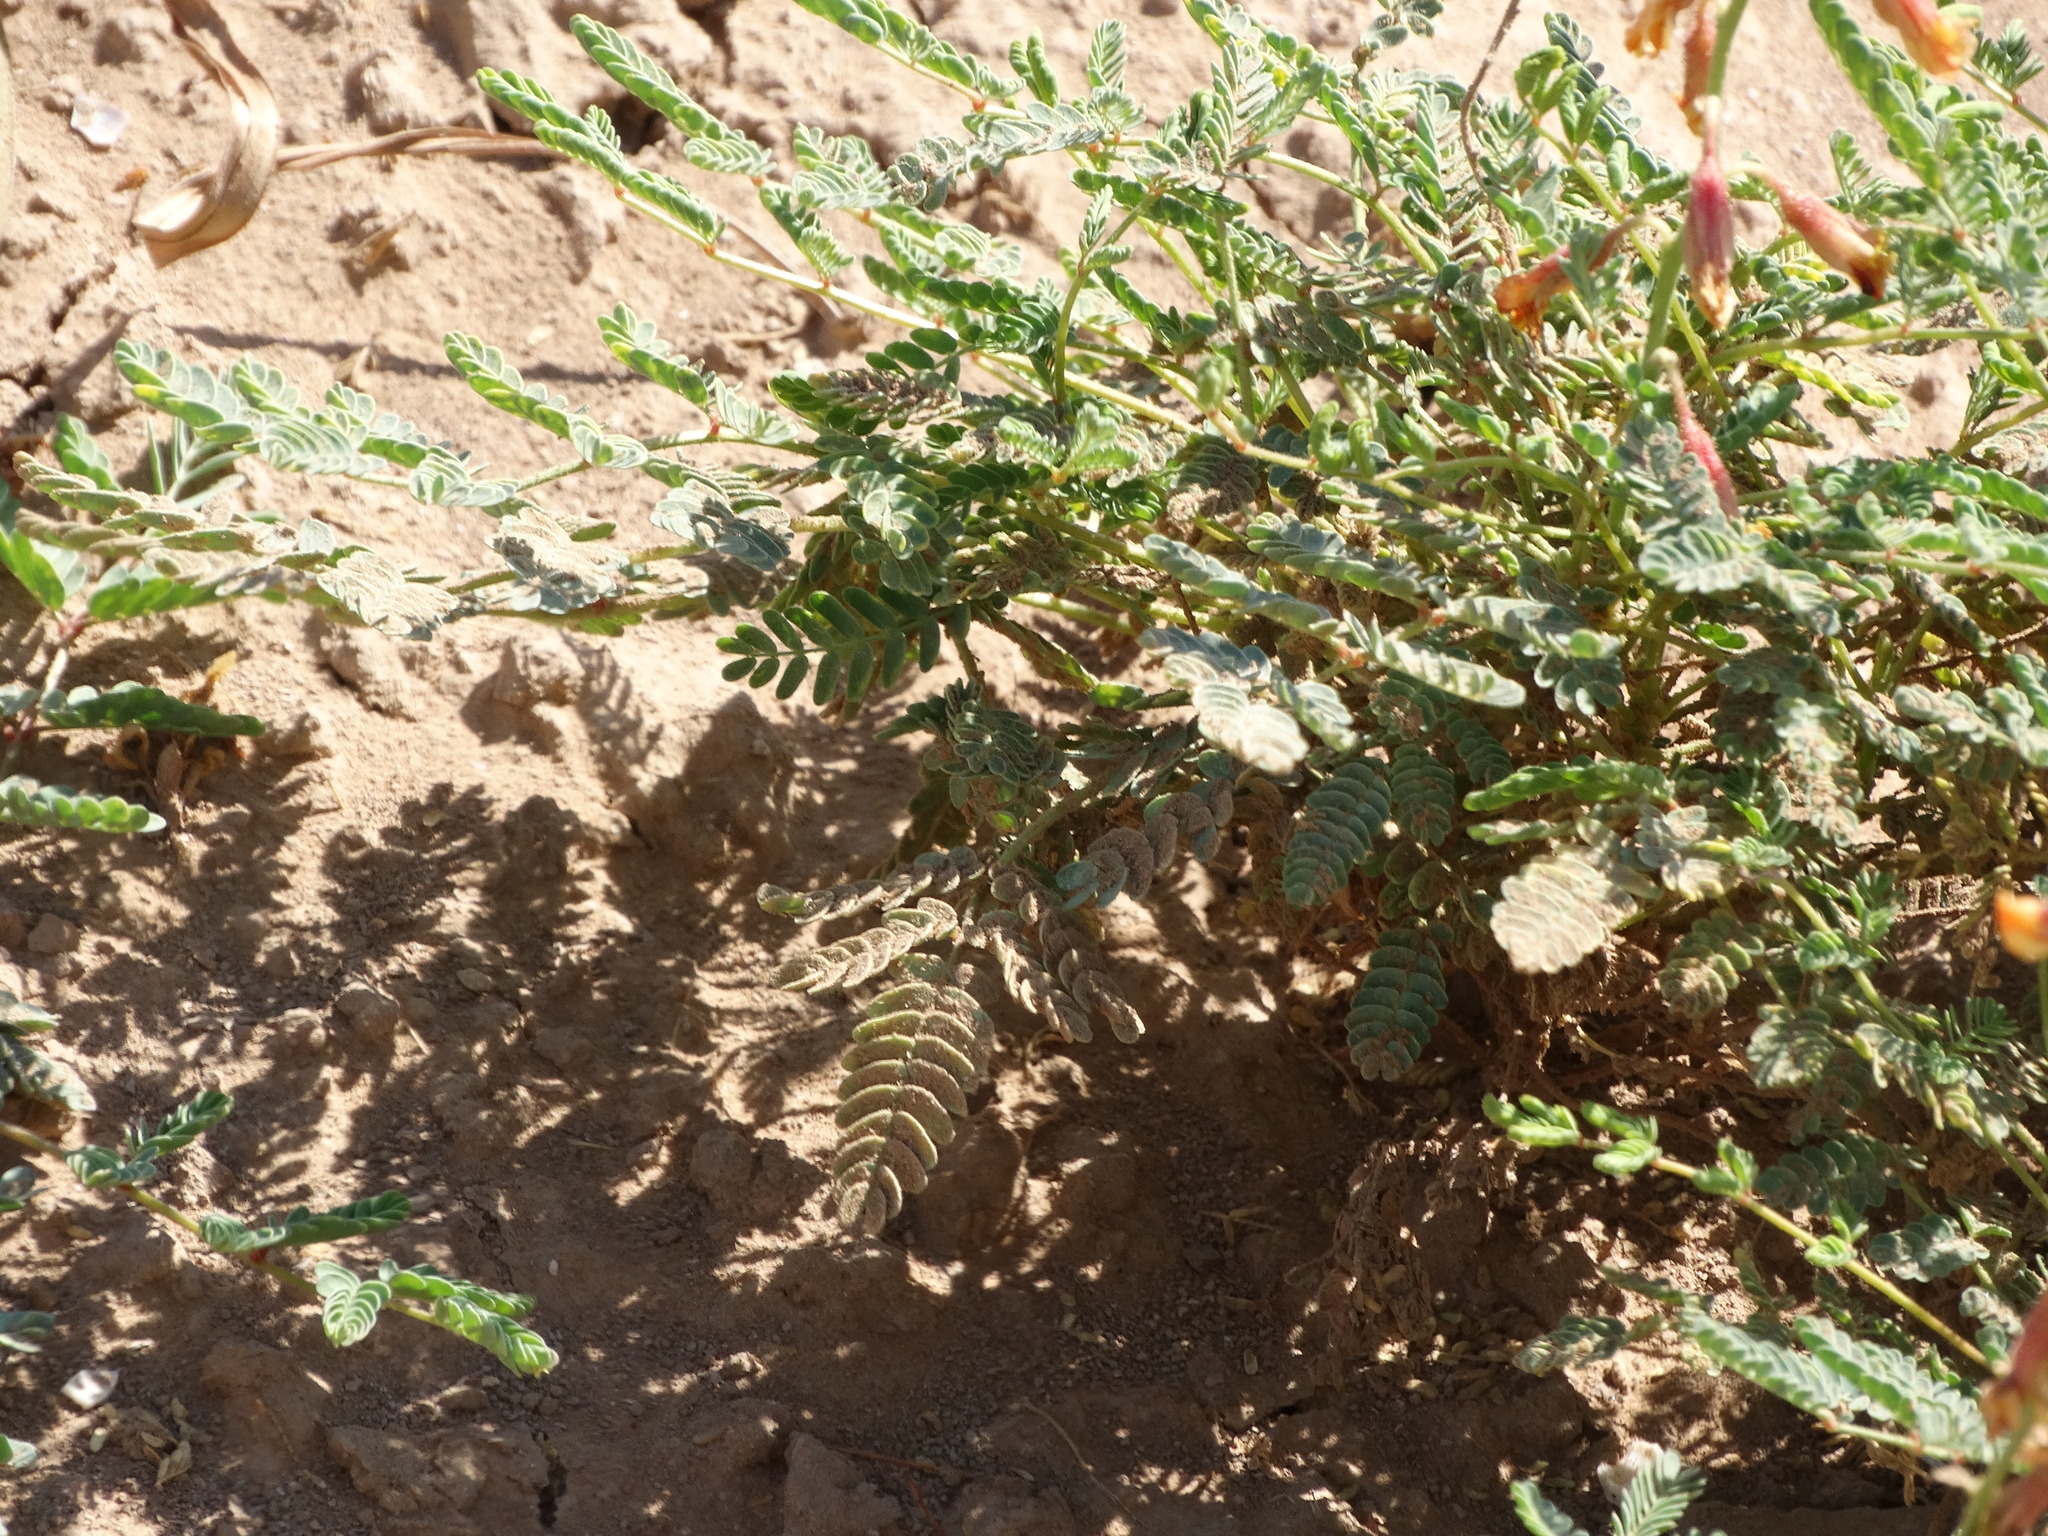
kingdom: Plantae
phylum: Tracheophyta
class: Magnoliopsida
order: Fabales
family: Fabaceae
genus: Hoffmannseggia
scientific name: Hoffmannseggia glauca
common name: Pignut
